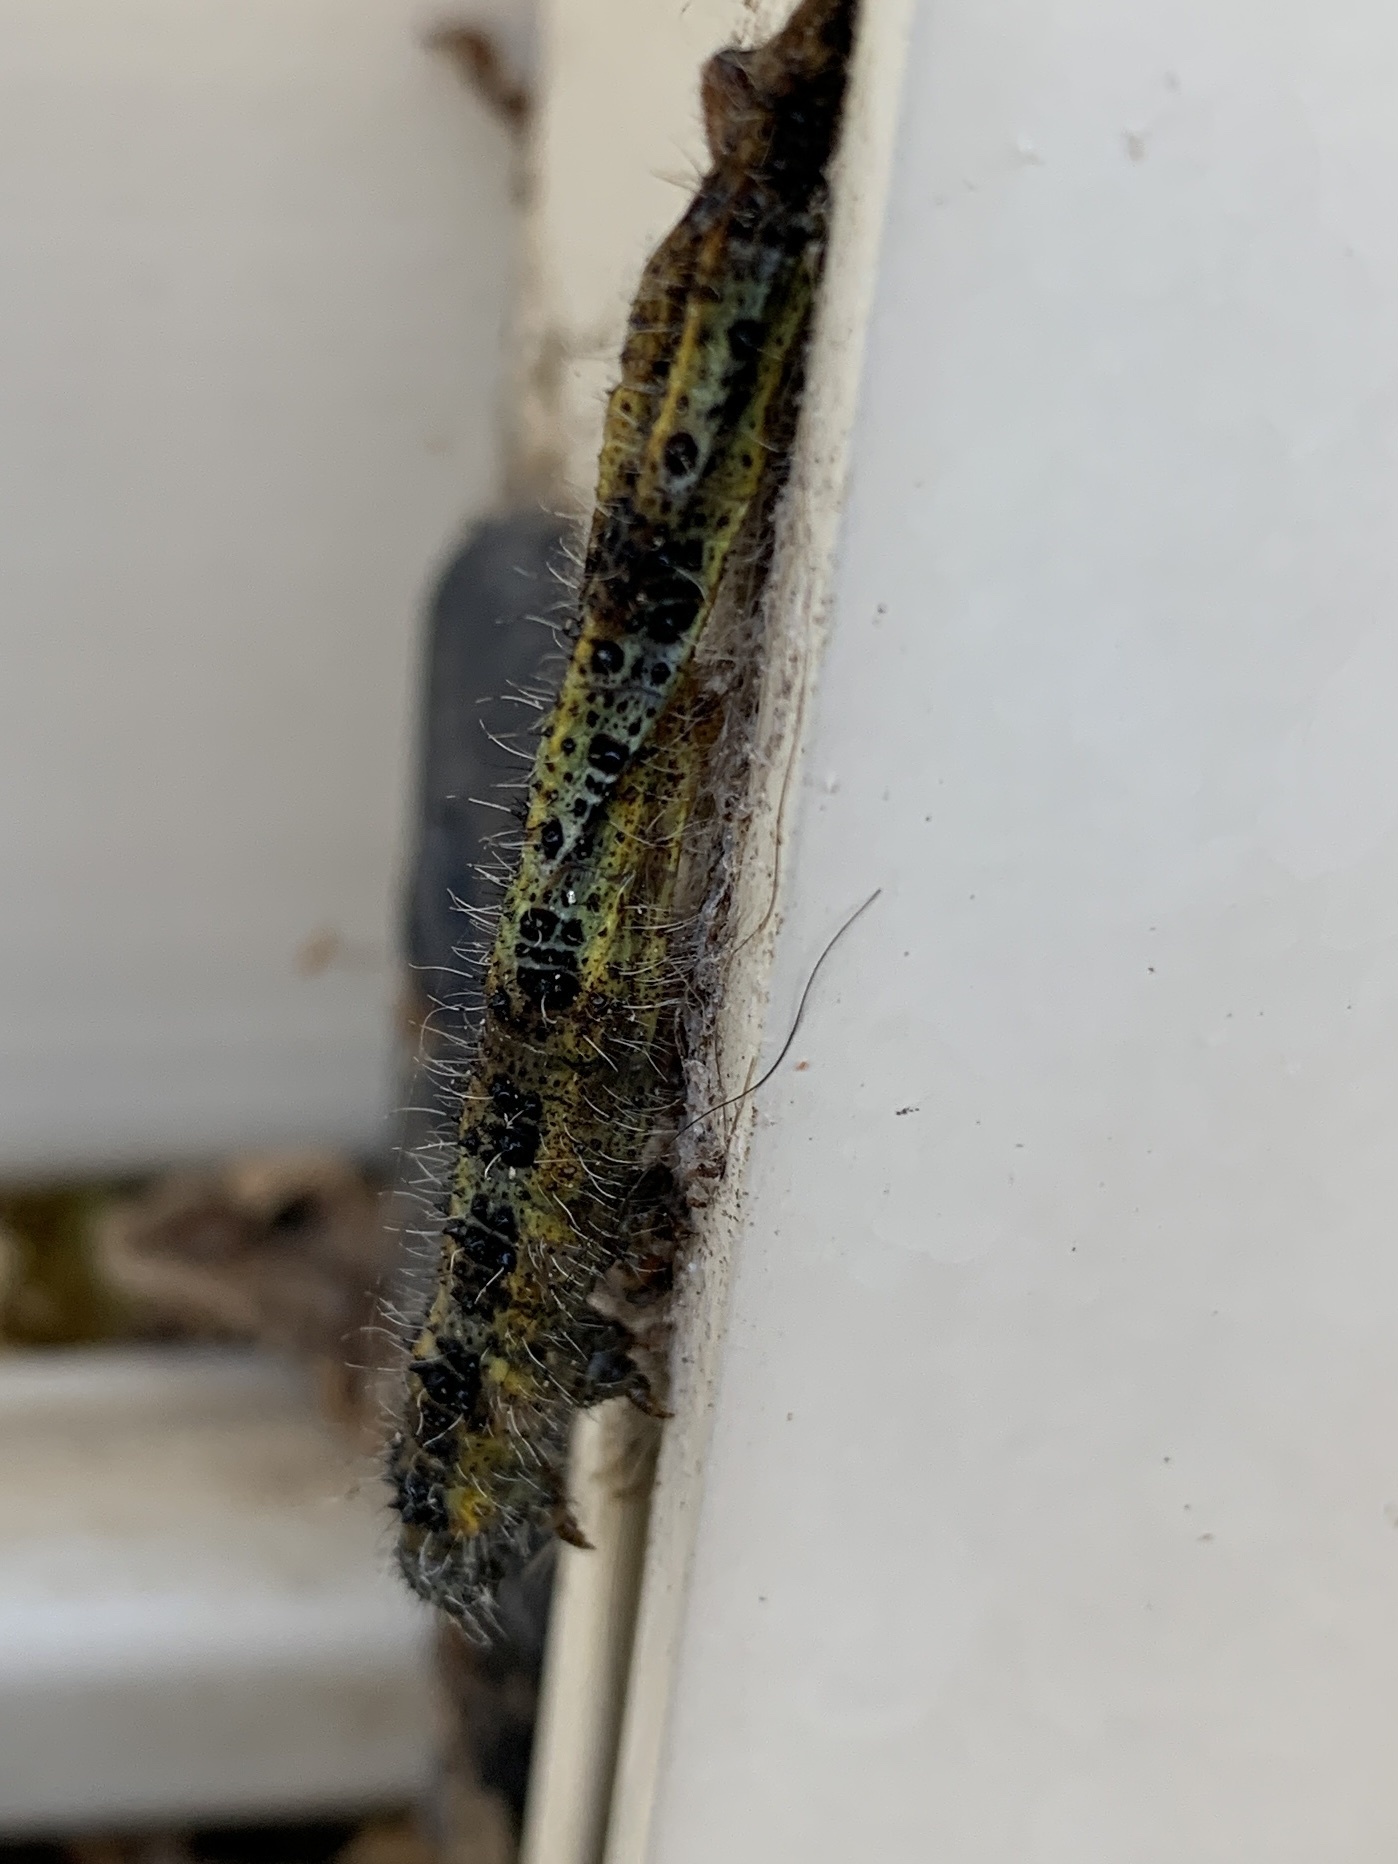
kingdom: Animalia
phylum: Arthropoda
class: Insecta
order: Lepidoptera
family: Pieridae
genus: Pieris
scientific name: Pieris brassicae
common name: Large white
